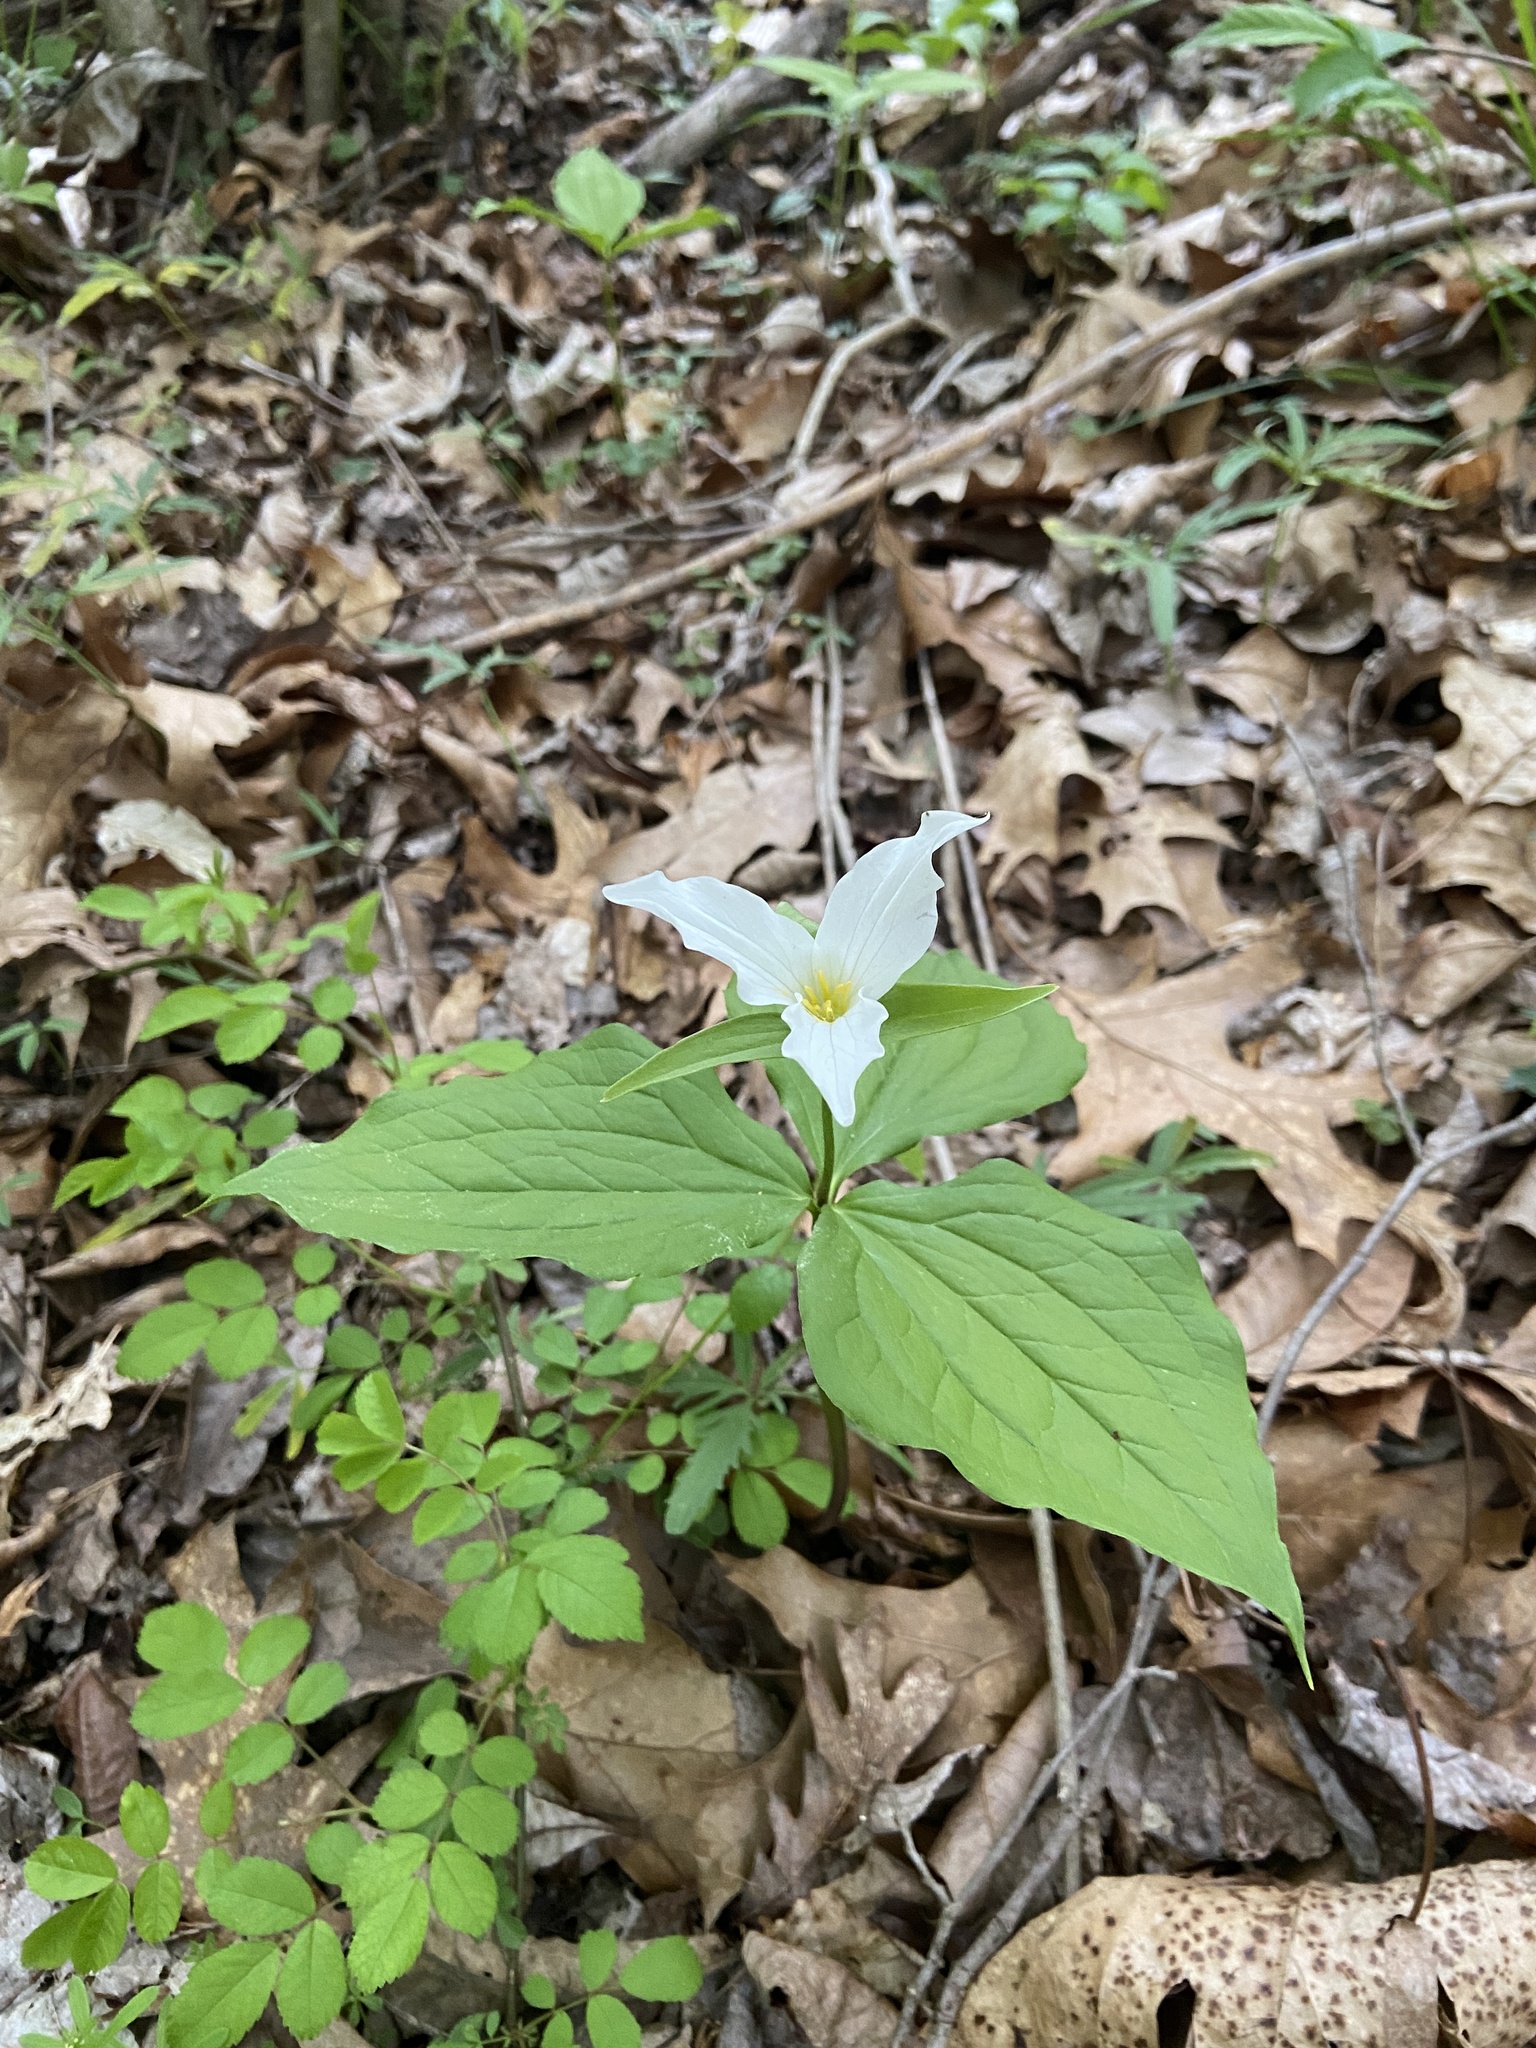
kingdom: Plantae
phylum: Tracheophyta
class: Liliopsida
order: Liliales
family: Melanthiaceae
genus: Trillium
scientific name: Trillium grandiflorum
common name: Great white trillium
